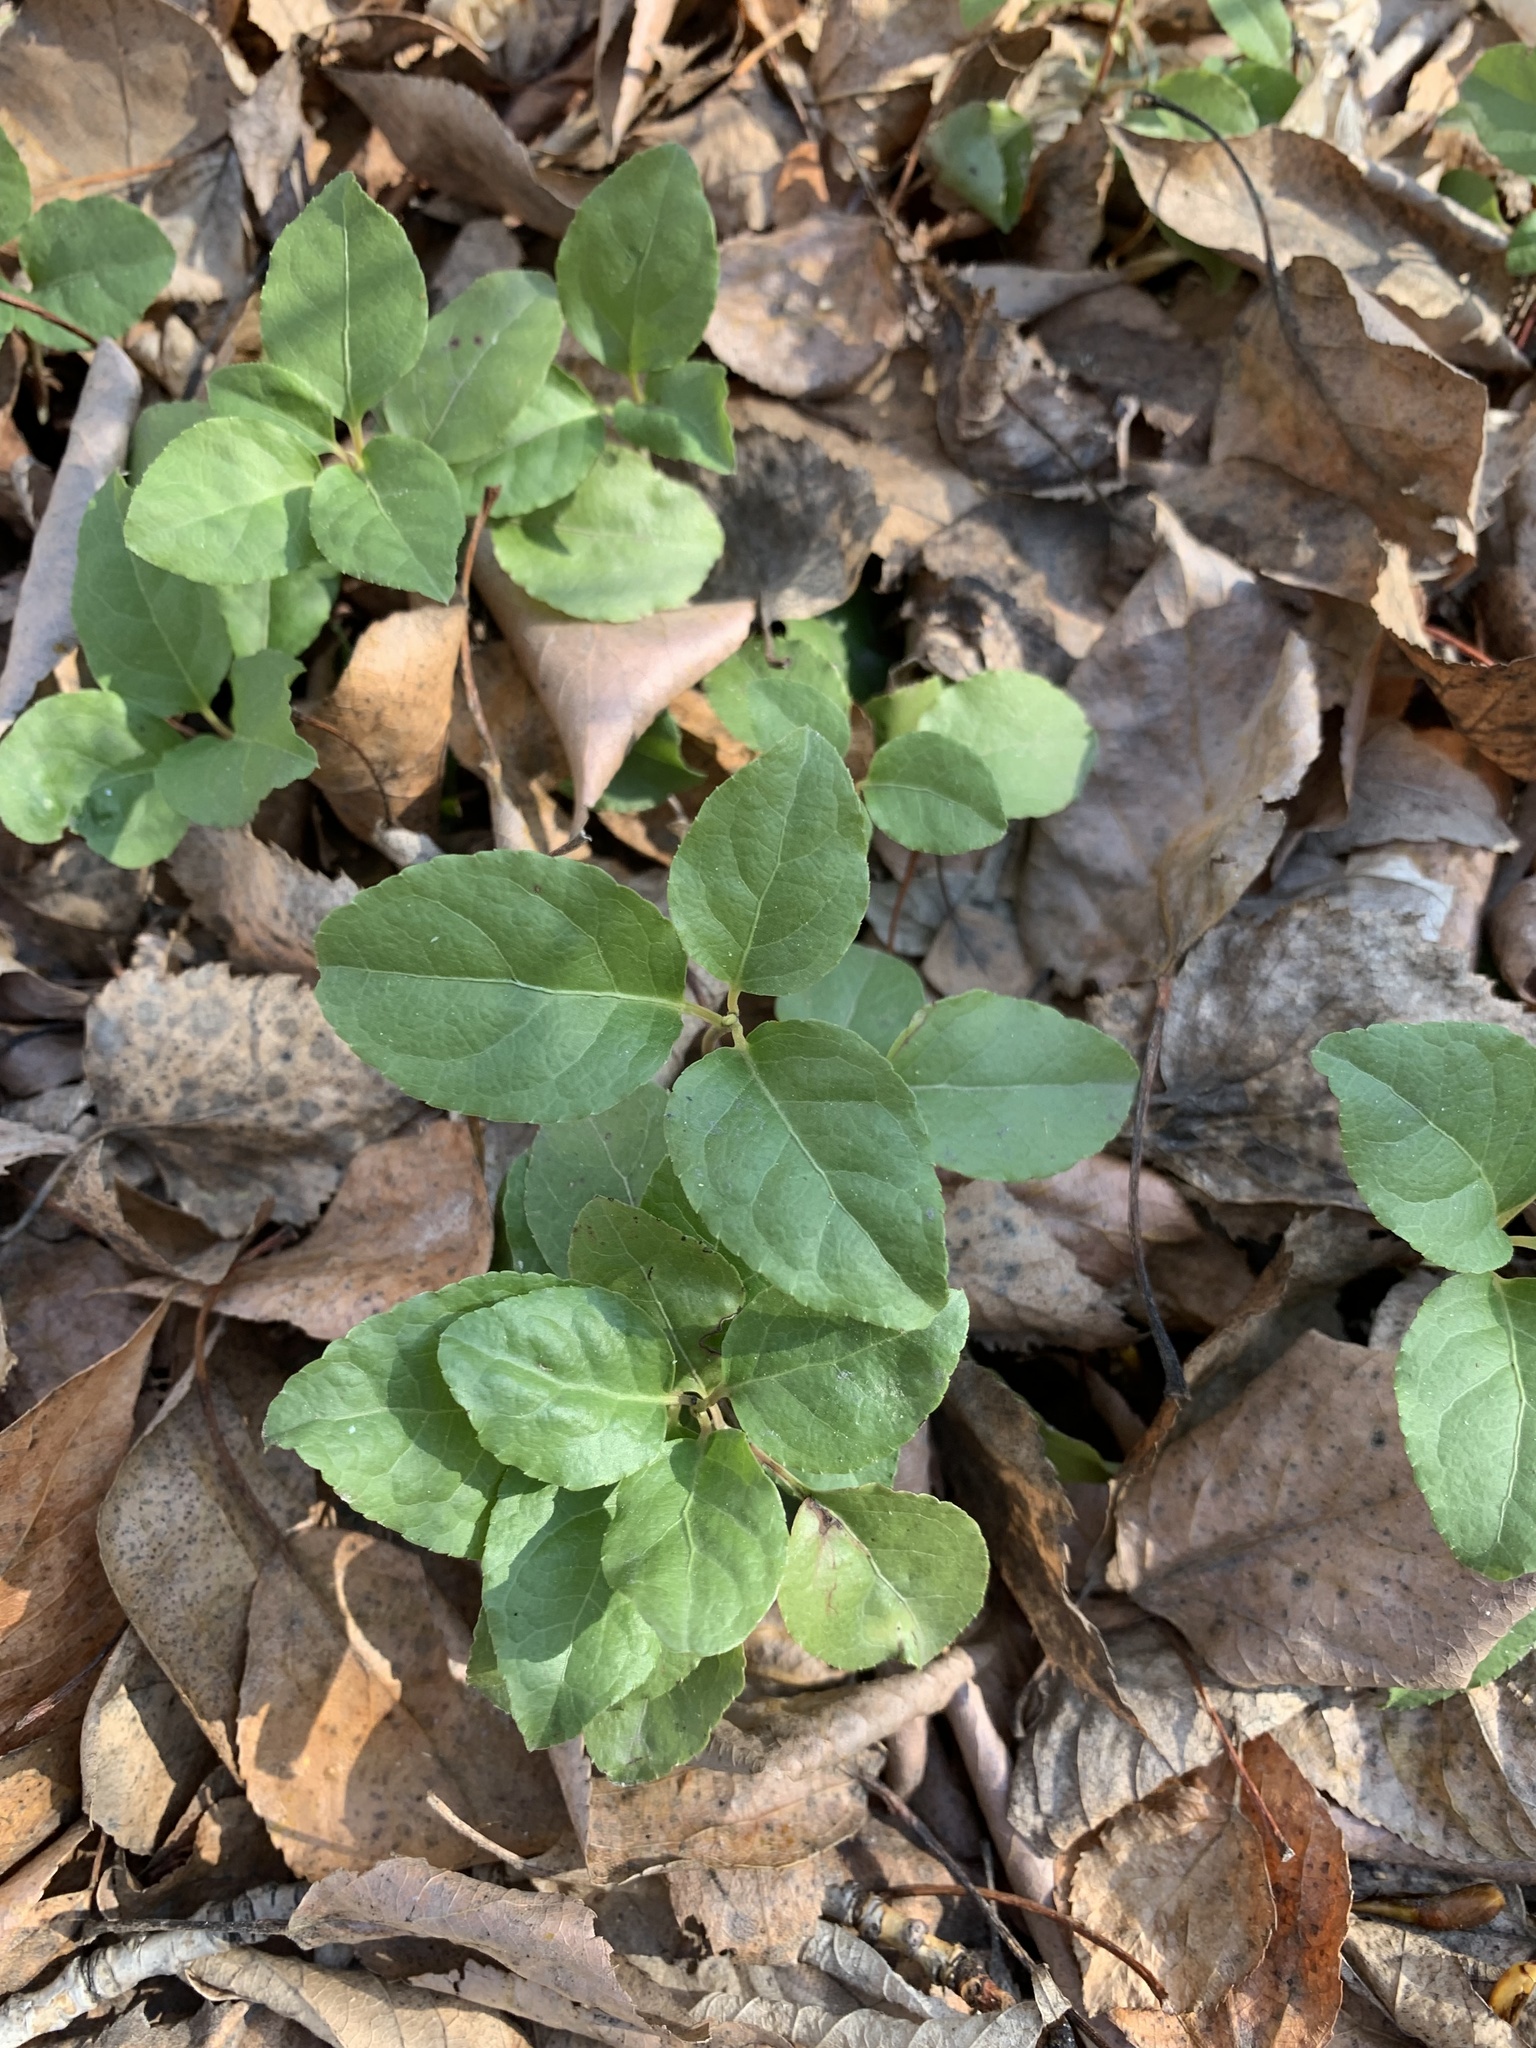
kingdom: Plantae
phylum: Tracheophyta
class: Magnoliopsida
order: Ericales
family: Ericaceae
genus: Orthilia
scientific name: Orthilia secunda
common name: One-sided orthilia
